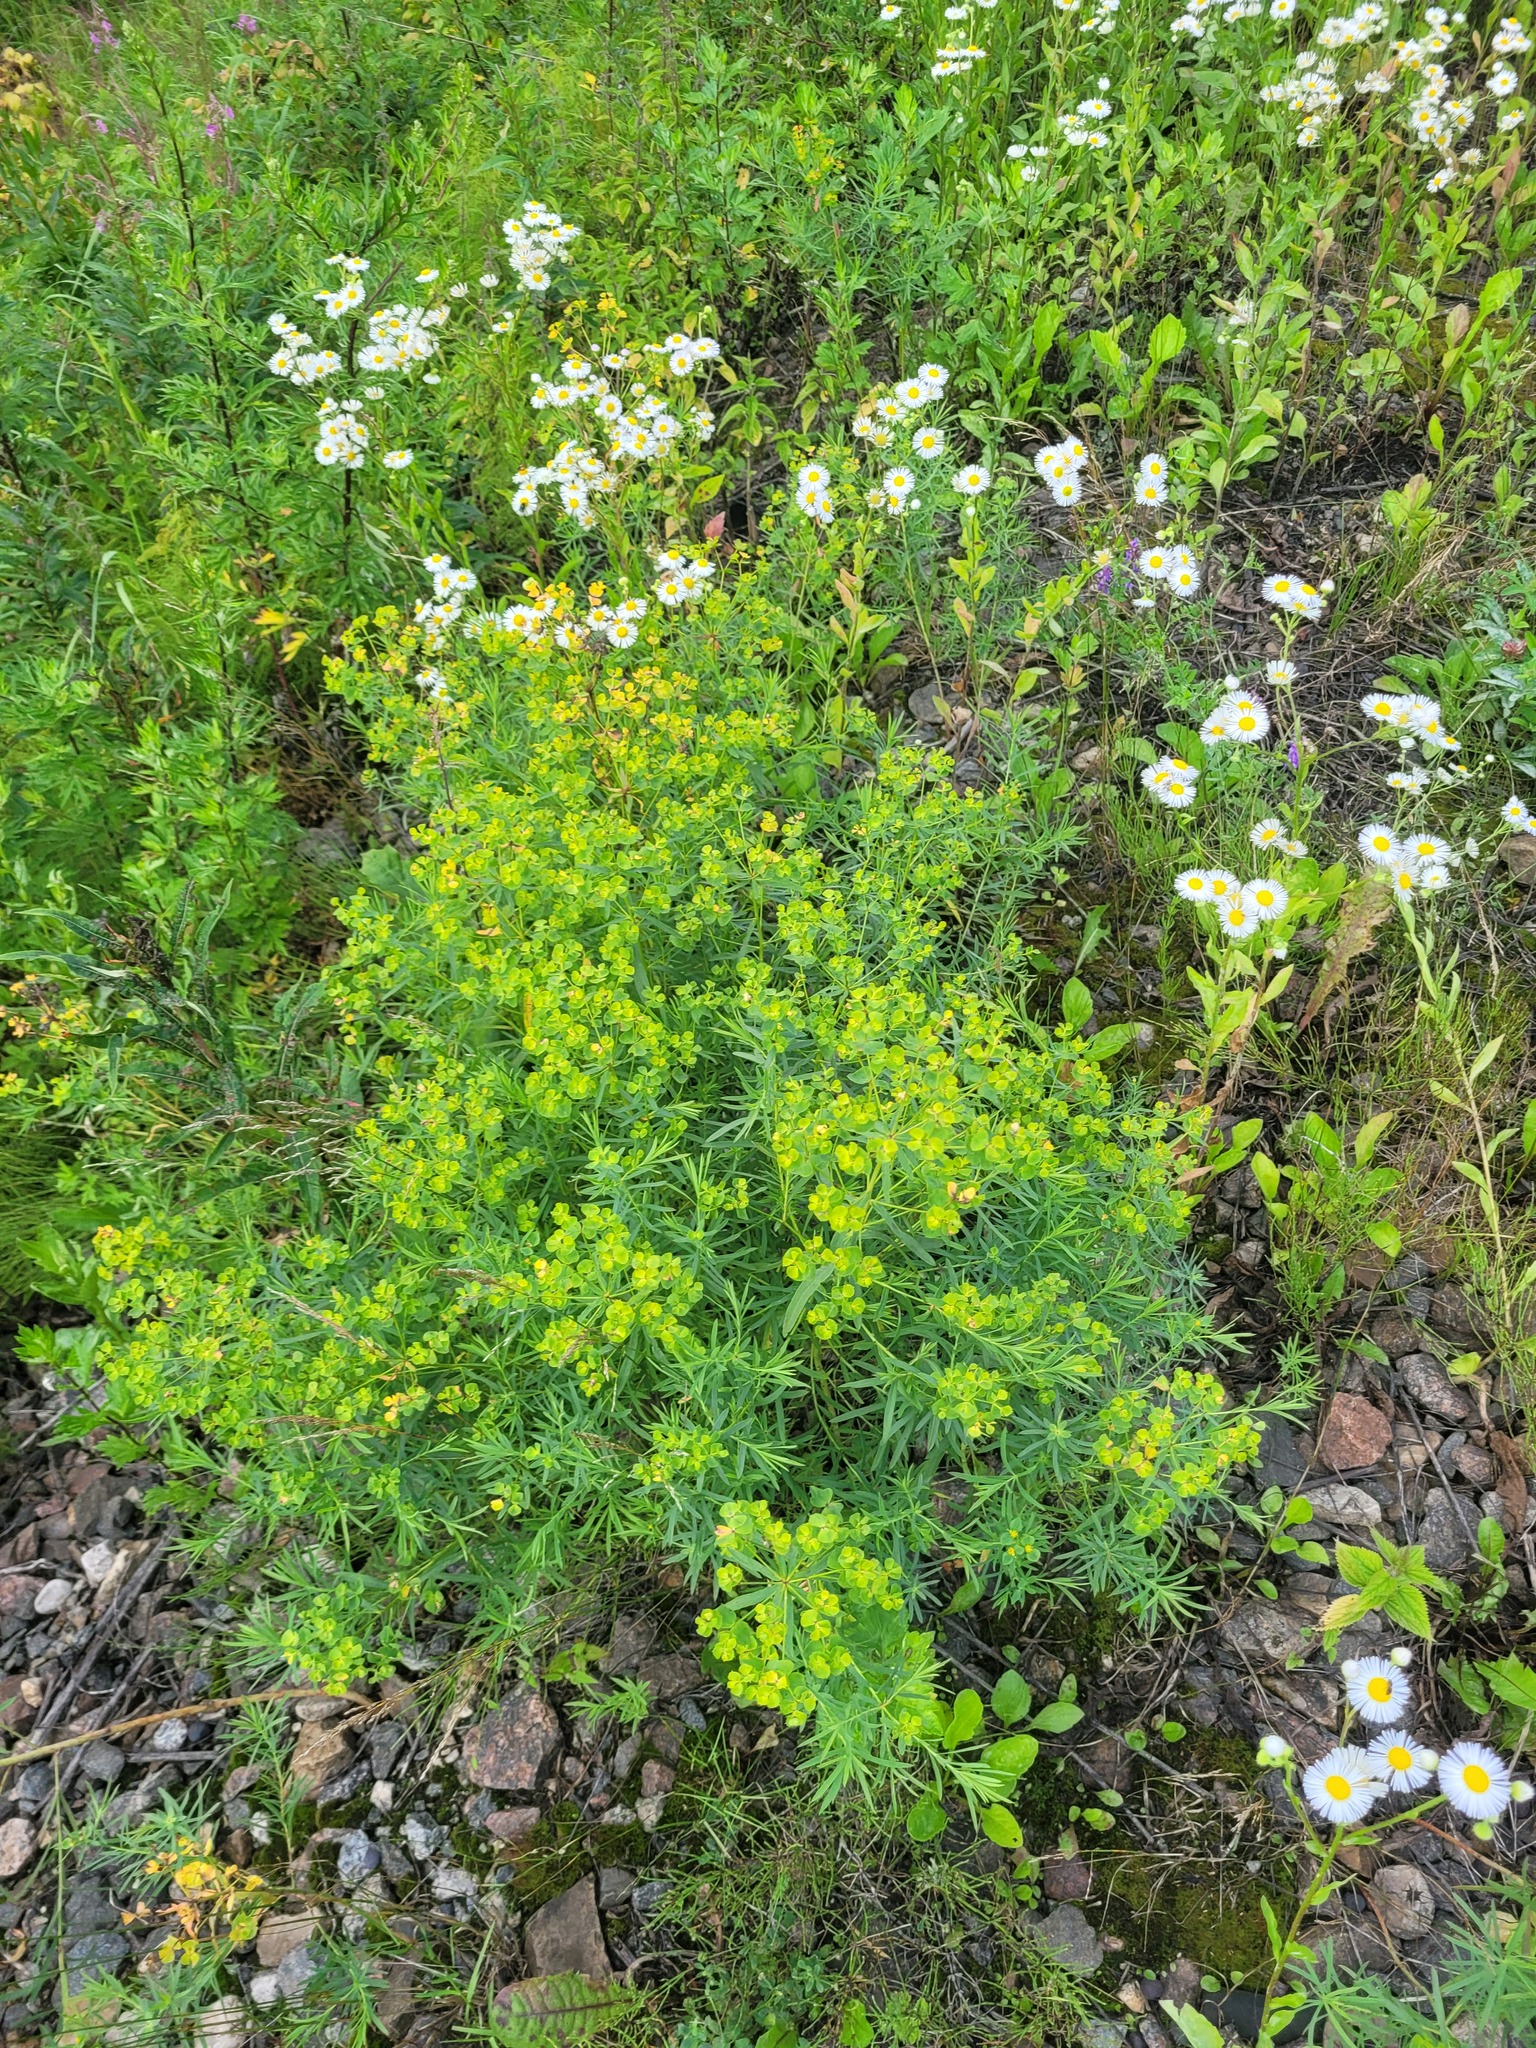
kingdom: Plantae
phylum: Tracheophyta
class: Magnoliopsida
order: Malpighiales
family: Euphorbiaceae
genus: Euphorbia
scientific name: Euphorbia virgata
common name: Leafy spurge
